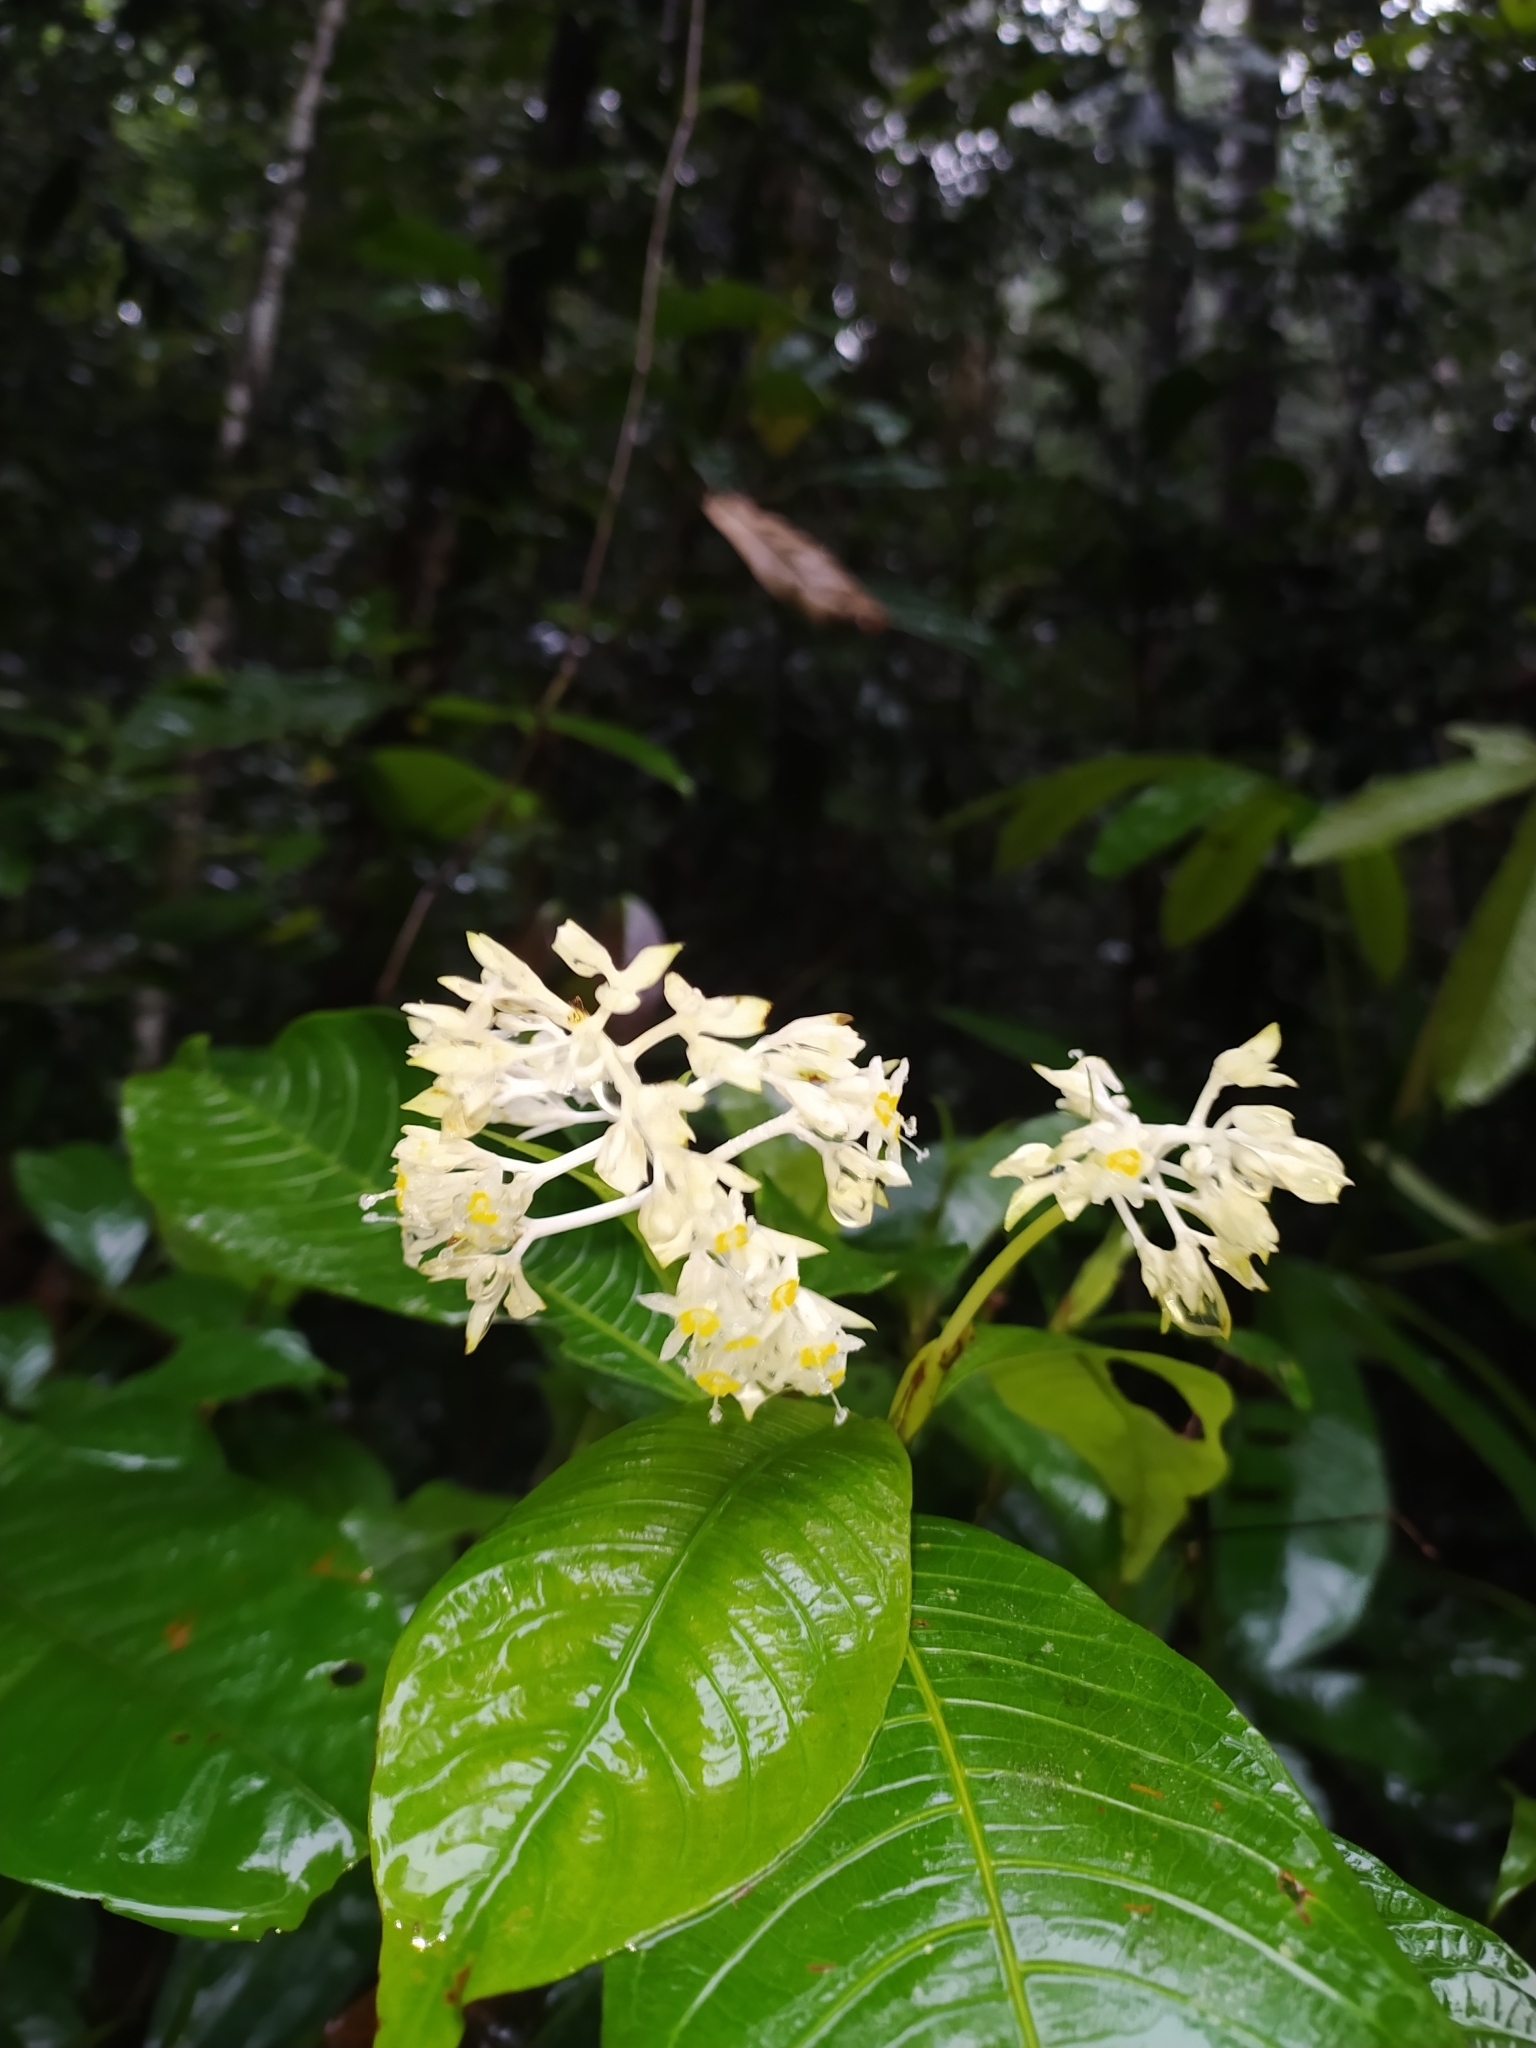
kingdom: Plantae
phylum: Tracheophyta
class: Magnoliopsida
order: Gentianales
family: Rubiaceae
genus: Palicourea
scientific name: Palicourea violacea
